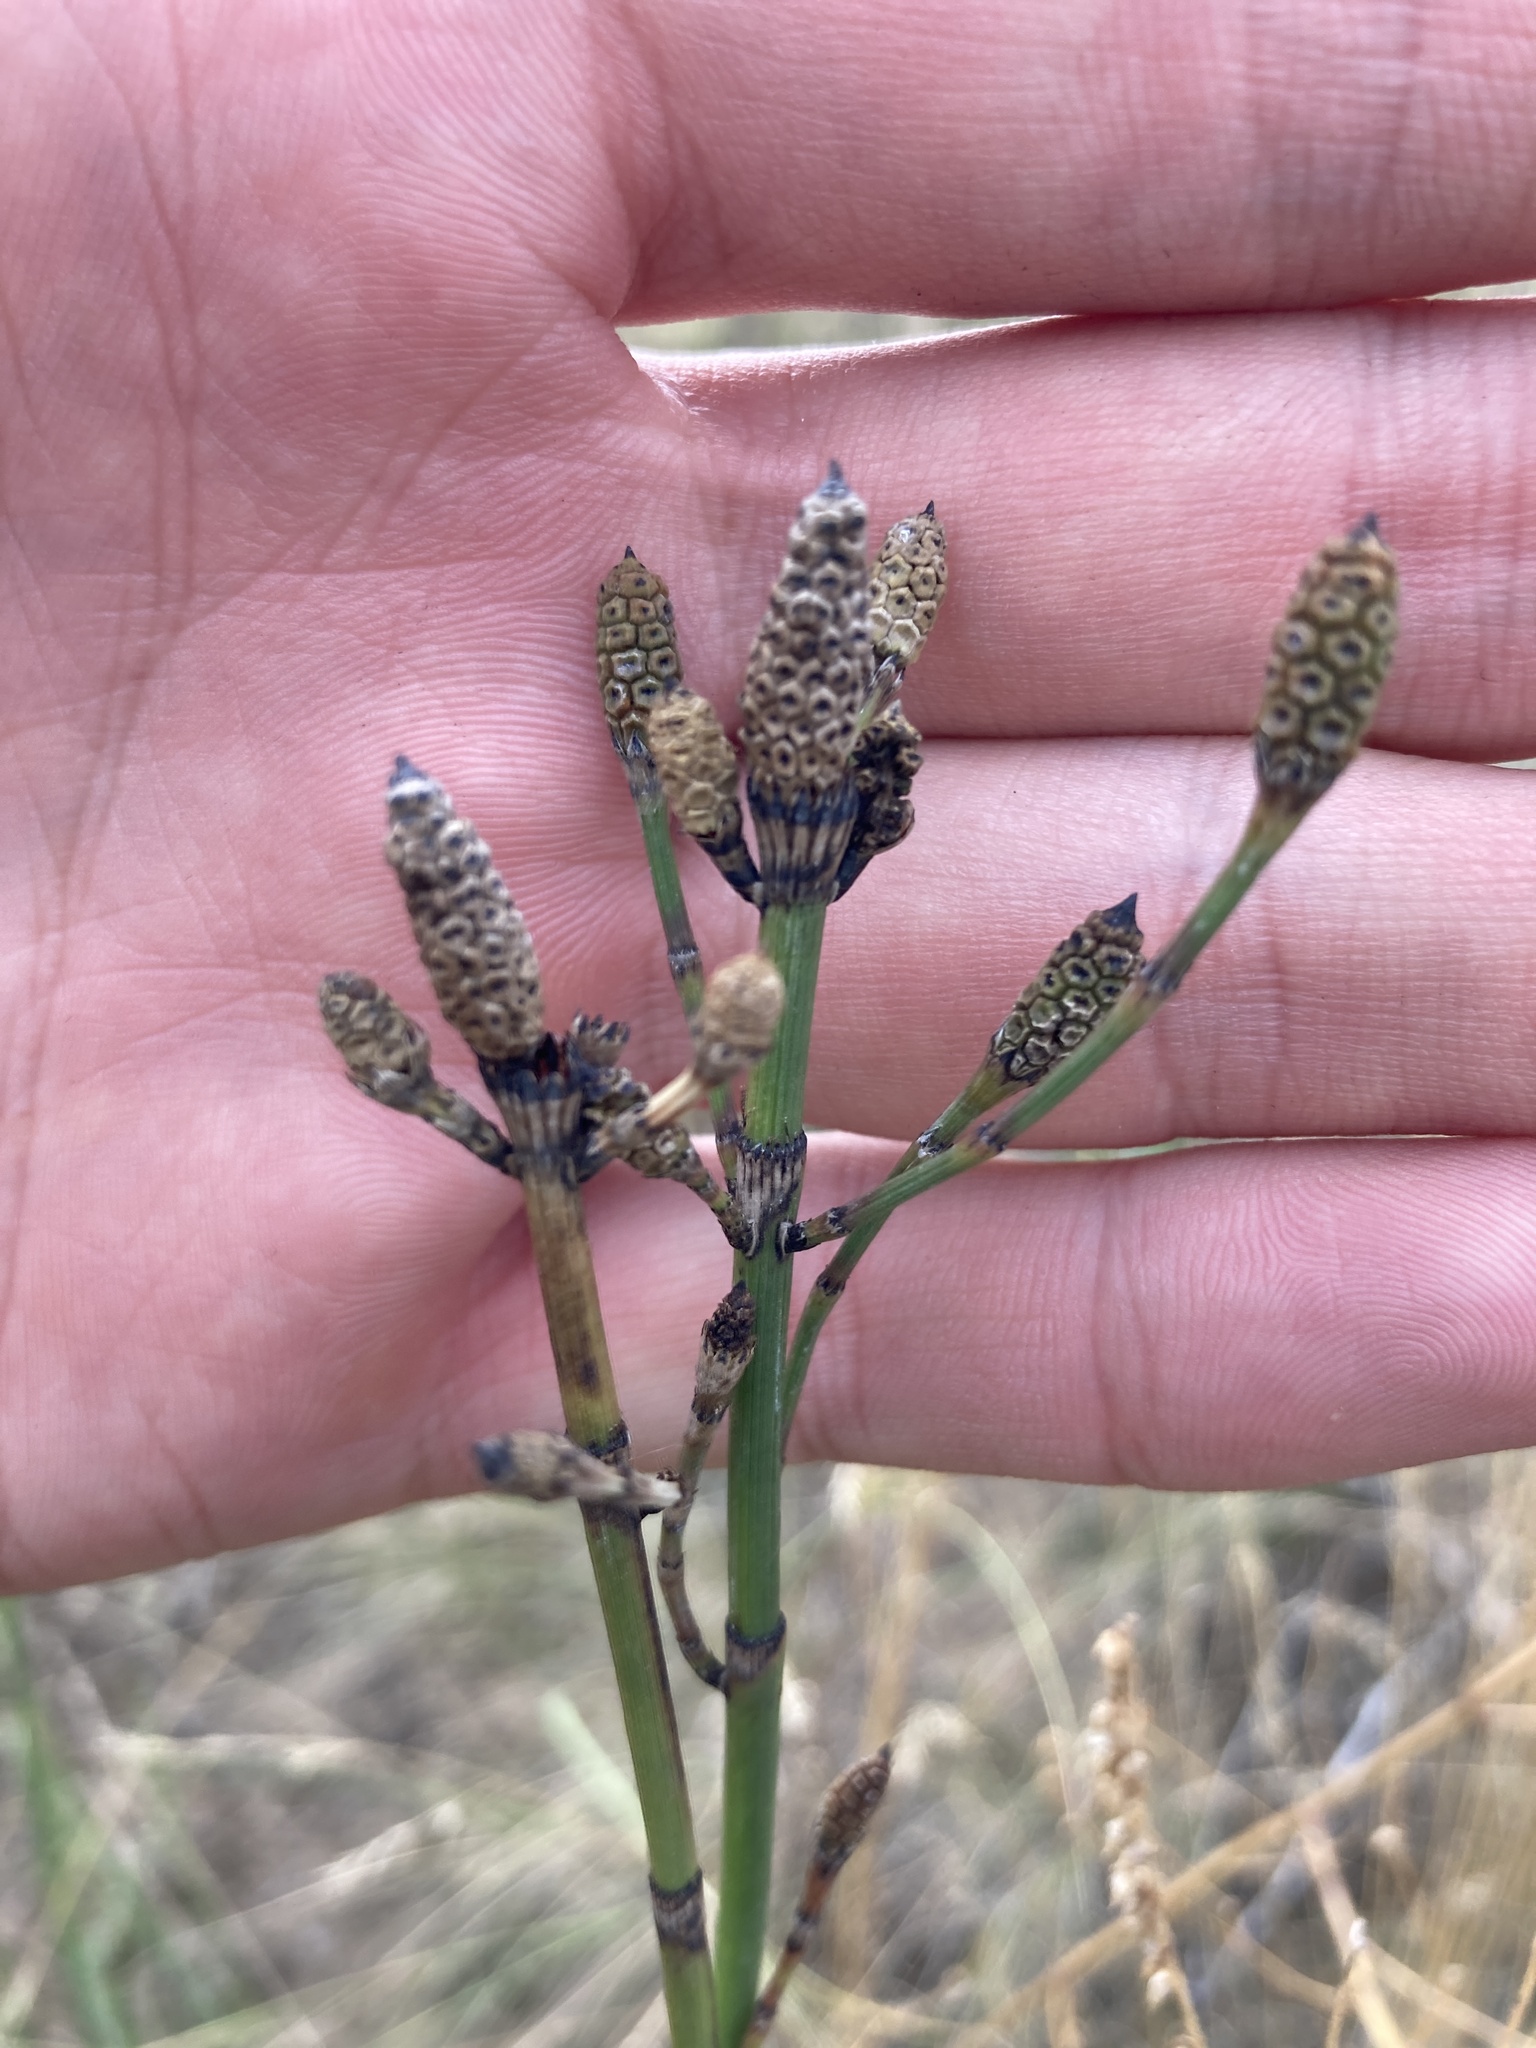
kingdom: Plantae
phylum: Tracheophyta
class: Polypodiopsida
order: Equisetales
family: Equisetaceae
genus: Equisetum
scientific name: Equisetum moorei
